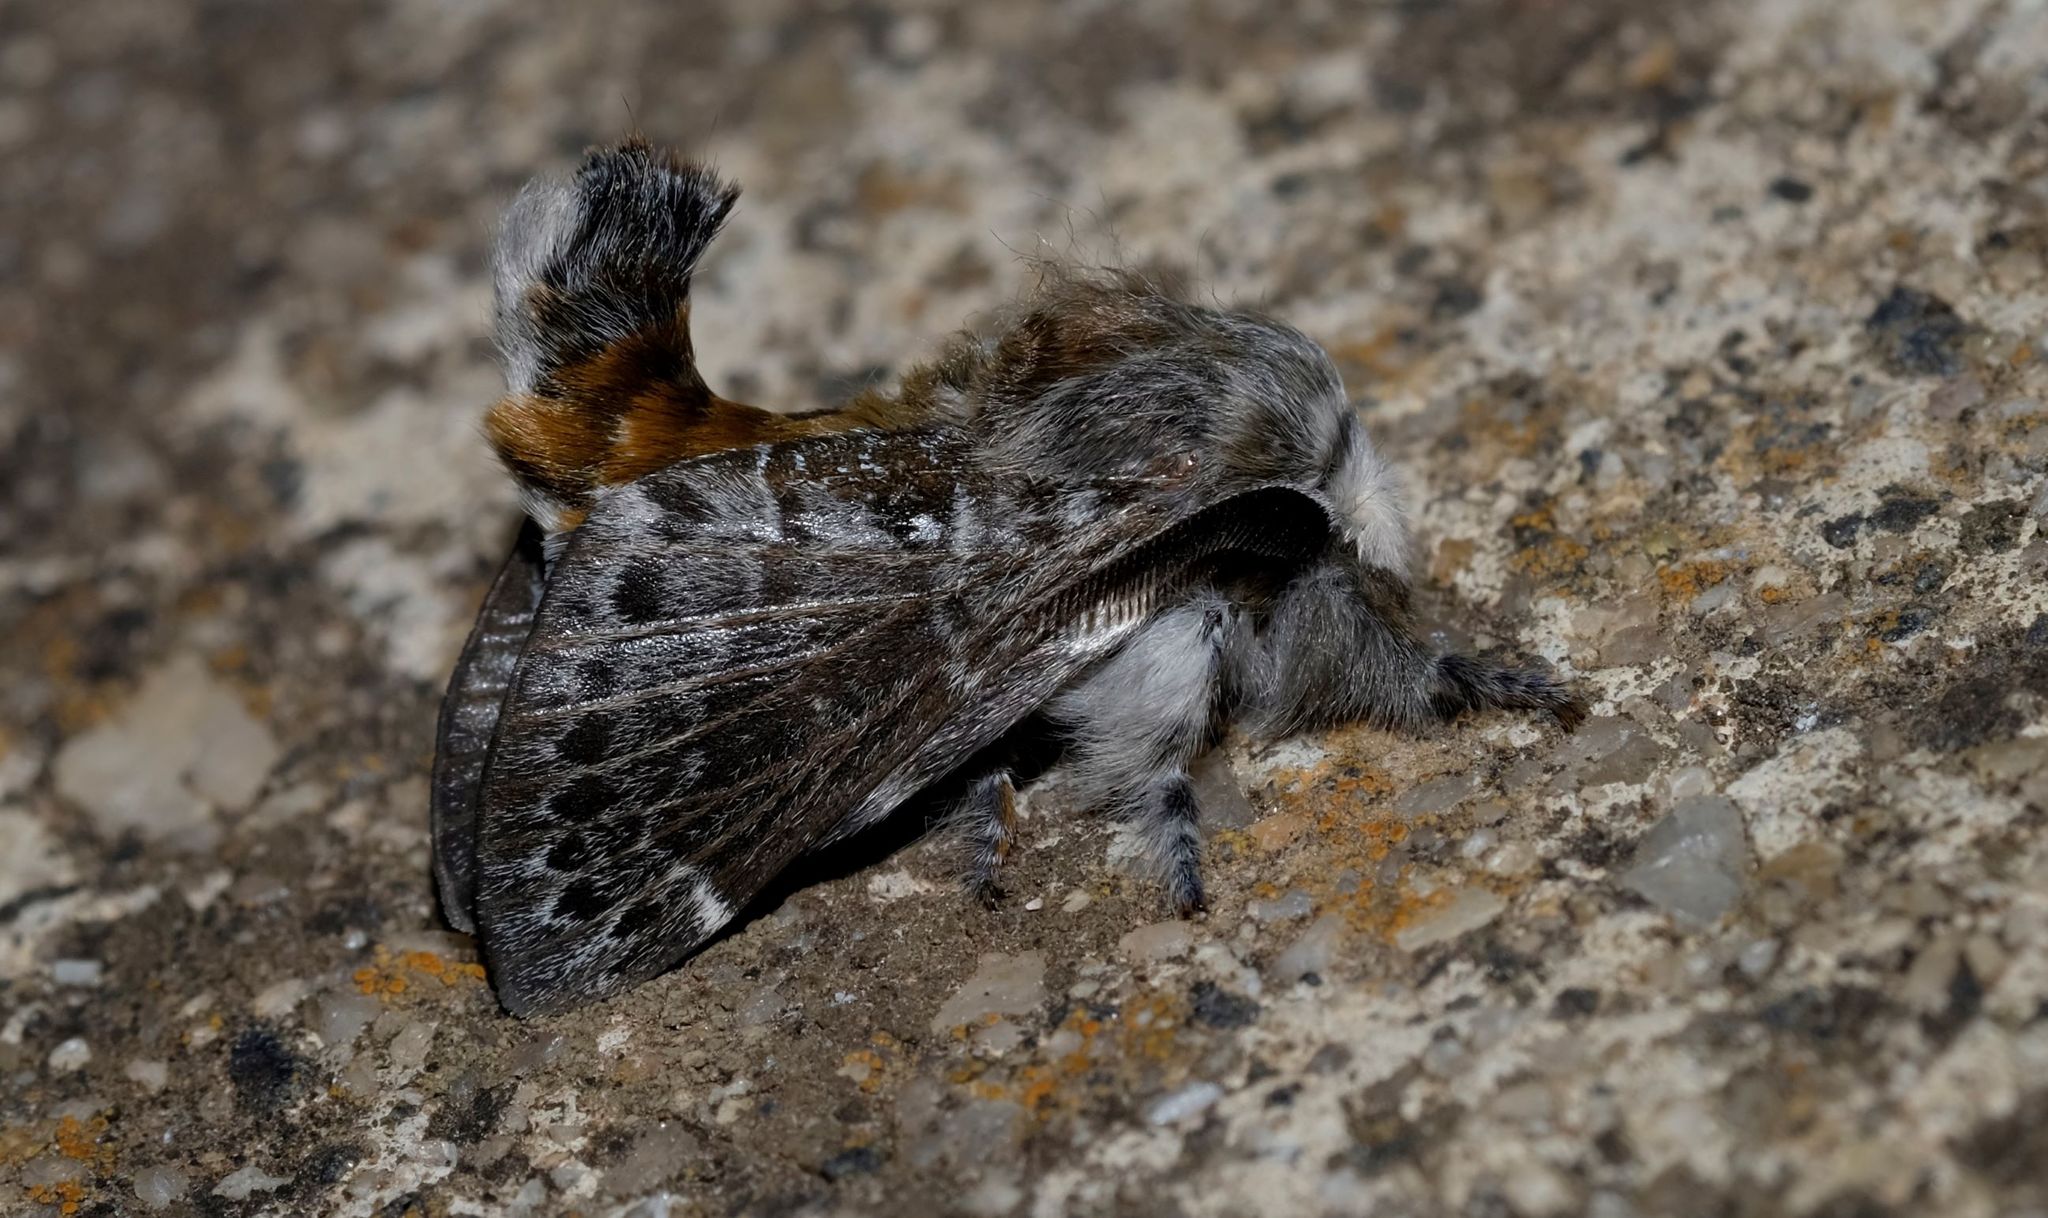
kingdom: Animalia
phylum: Arthropoda
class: Insecta
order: Lepidoptera
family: Lasiocampidae
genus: Genduara
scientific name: Genduara subnotata
